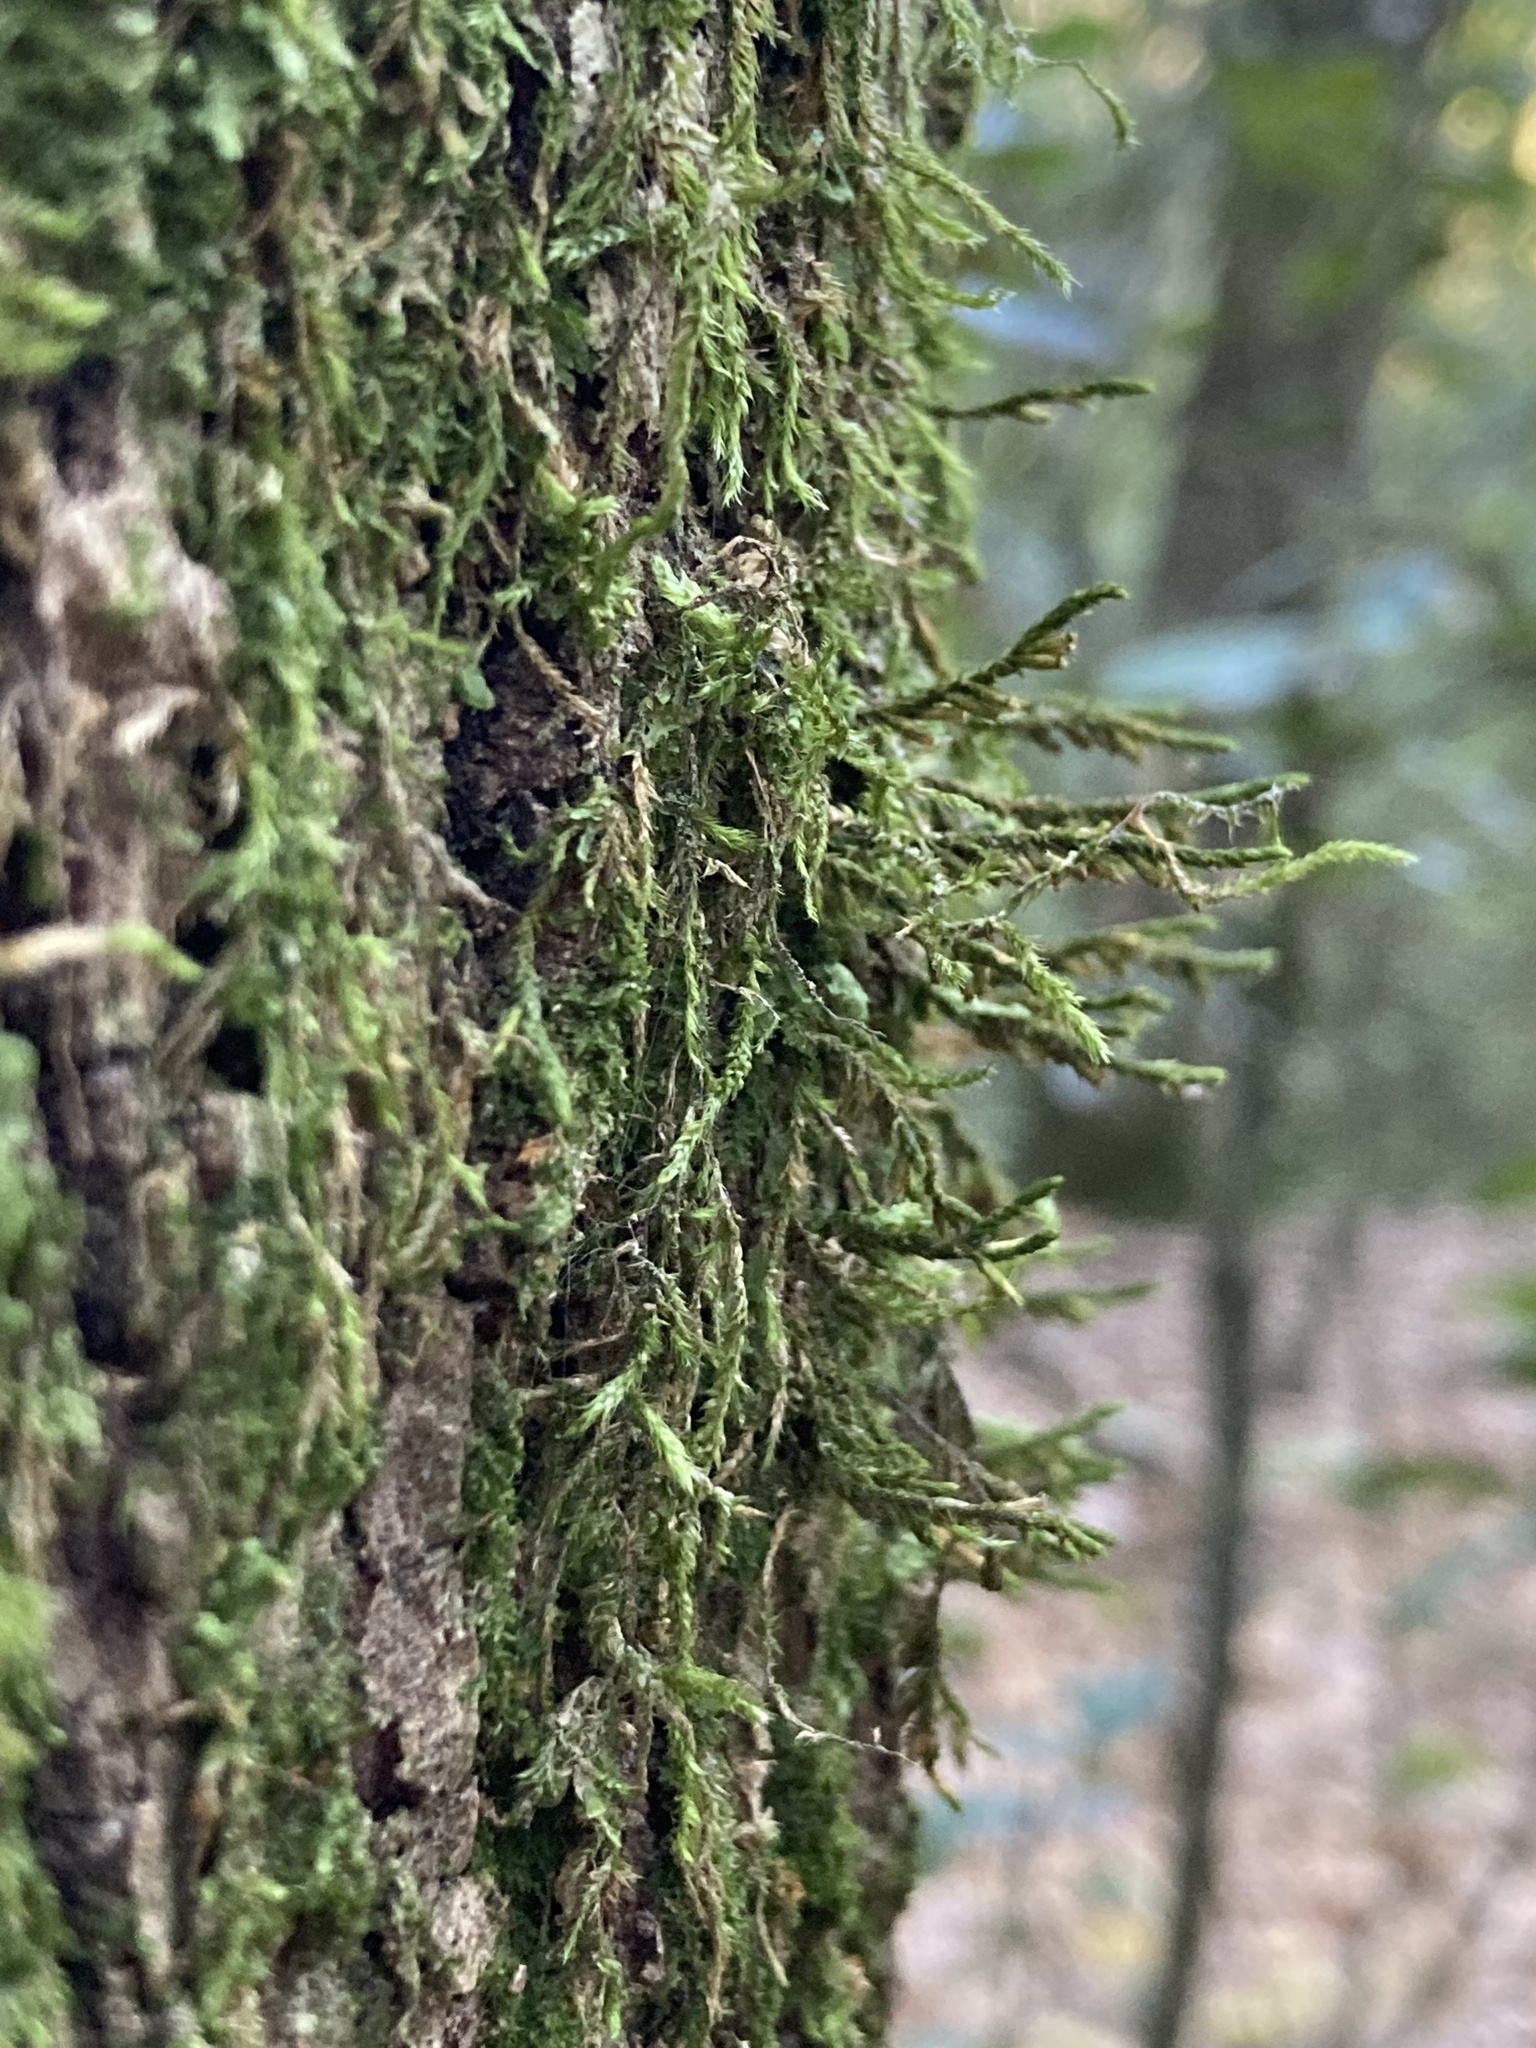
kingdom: Plantae
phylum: Bryophyta
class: Bryopsida
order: Hypnales
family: Cryphaeaceae
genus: Cryphaea
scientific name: Cryphaea heteromalla
